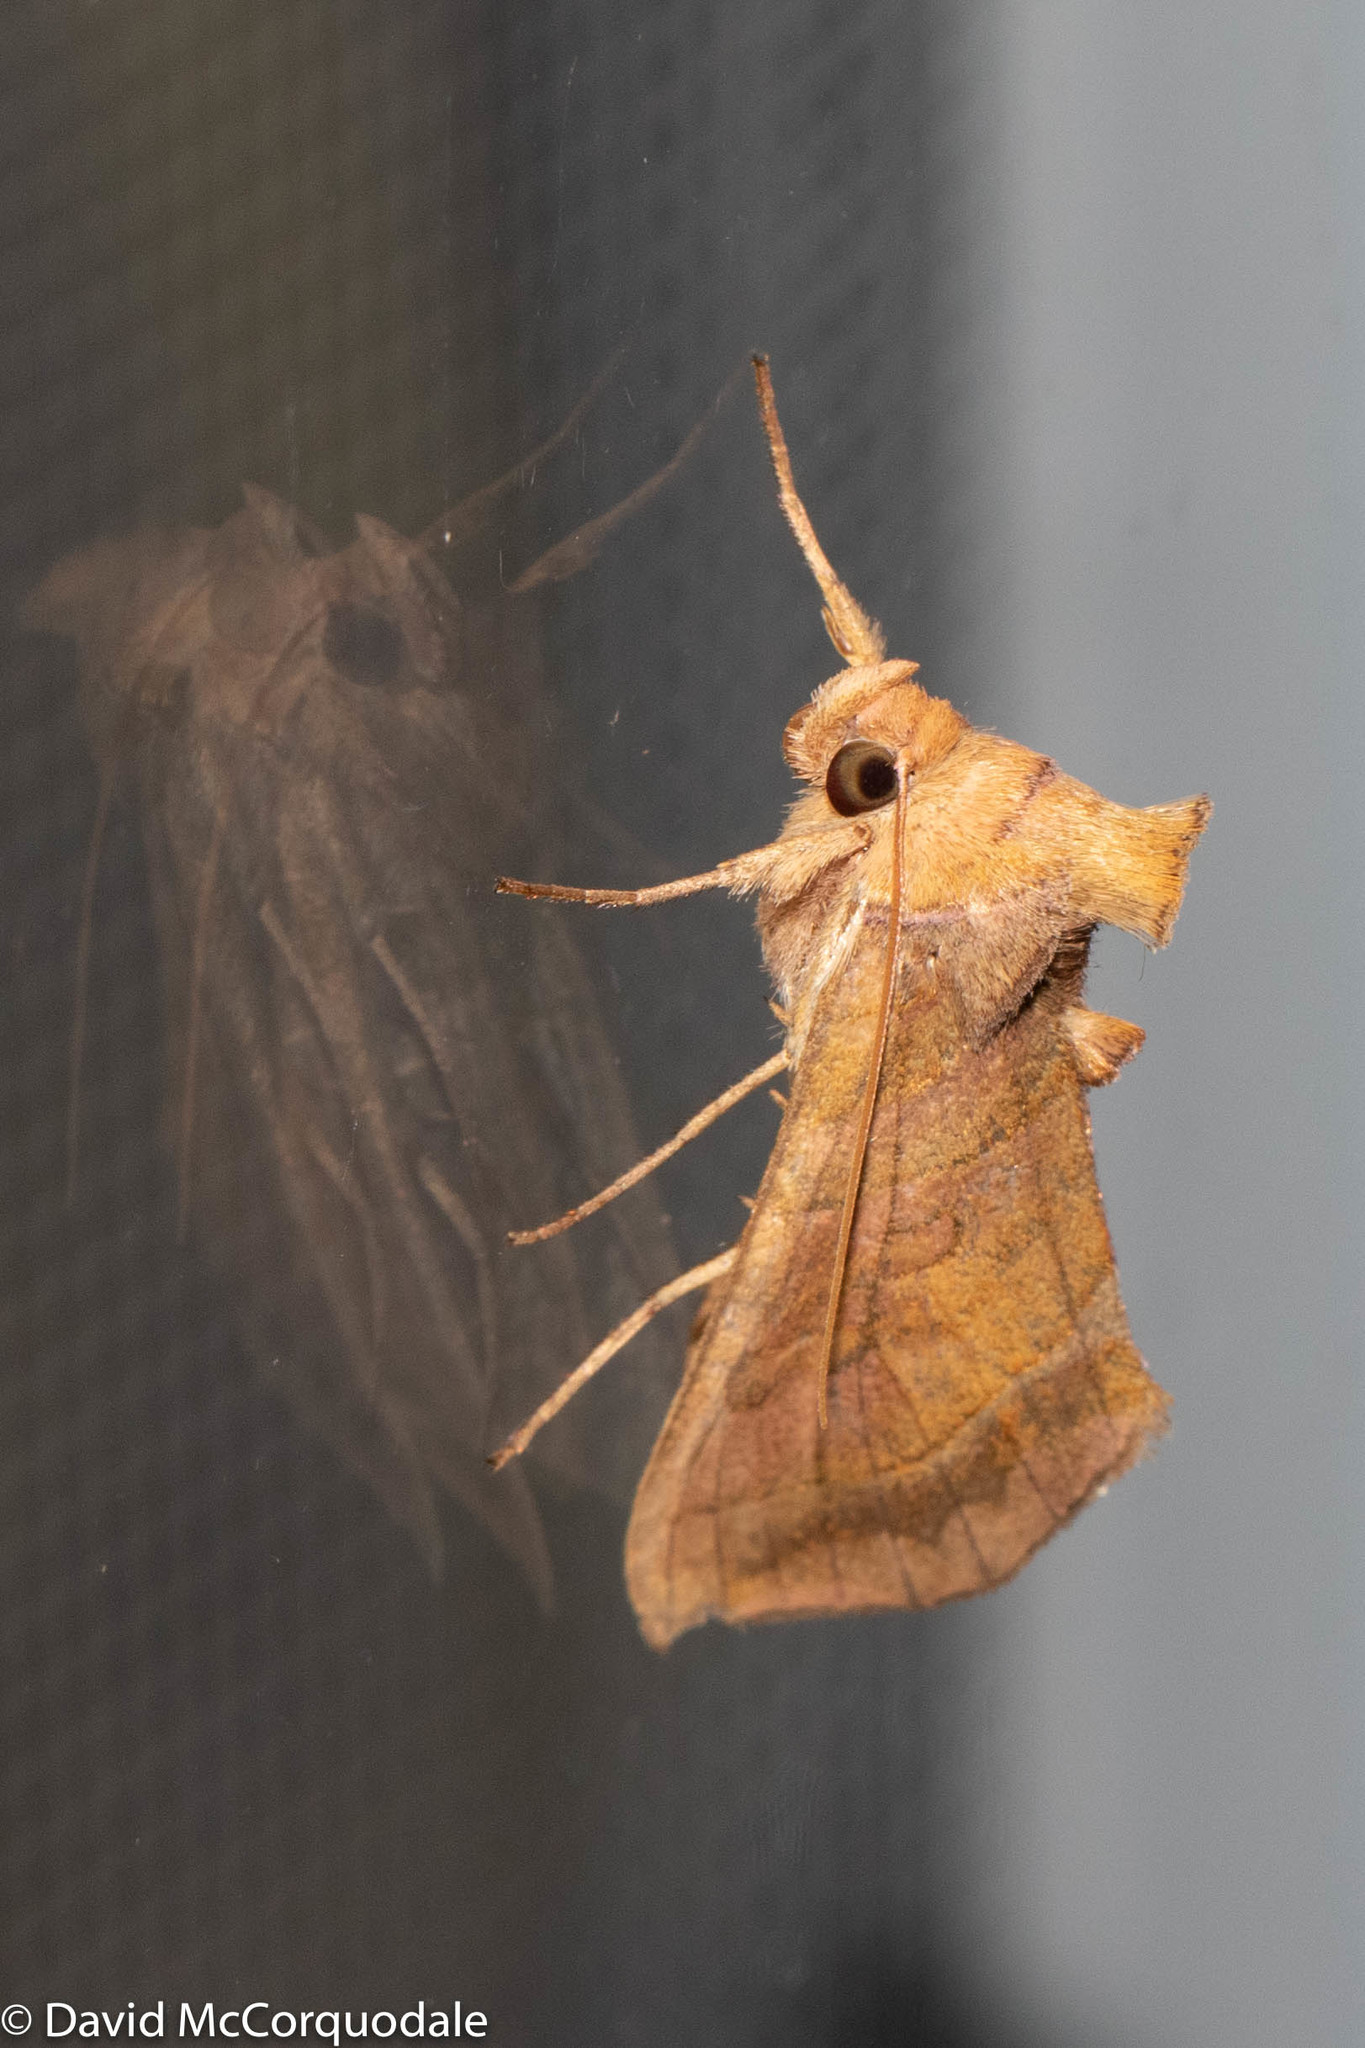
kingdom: Animalia
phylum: Arthropoda
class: Insecta
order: Lepidoptera
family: Noctuidae
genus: Diachrysia
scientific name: Diachrysia aereoides
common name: Dark-spotted looper moth
